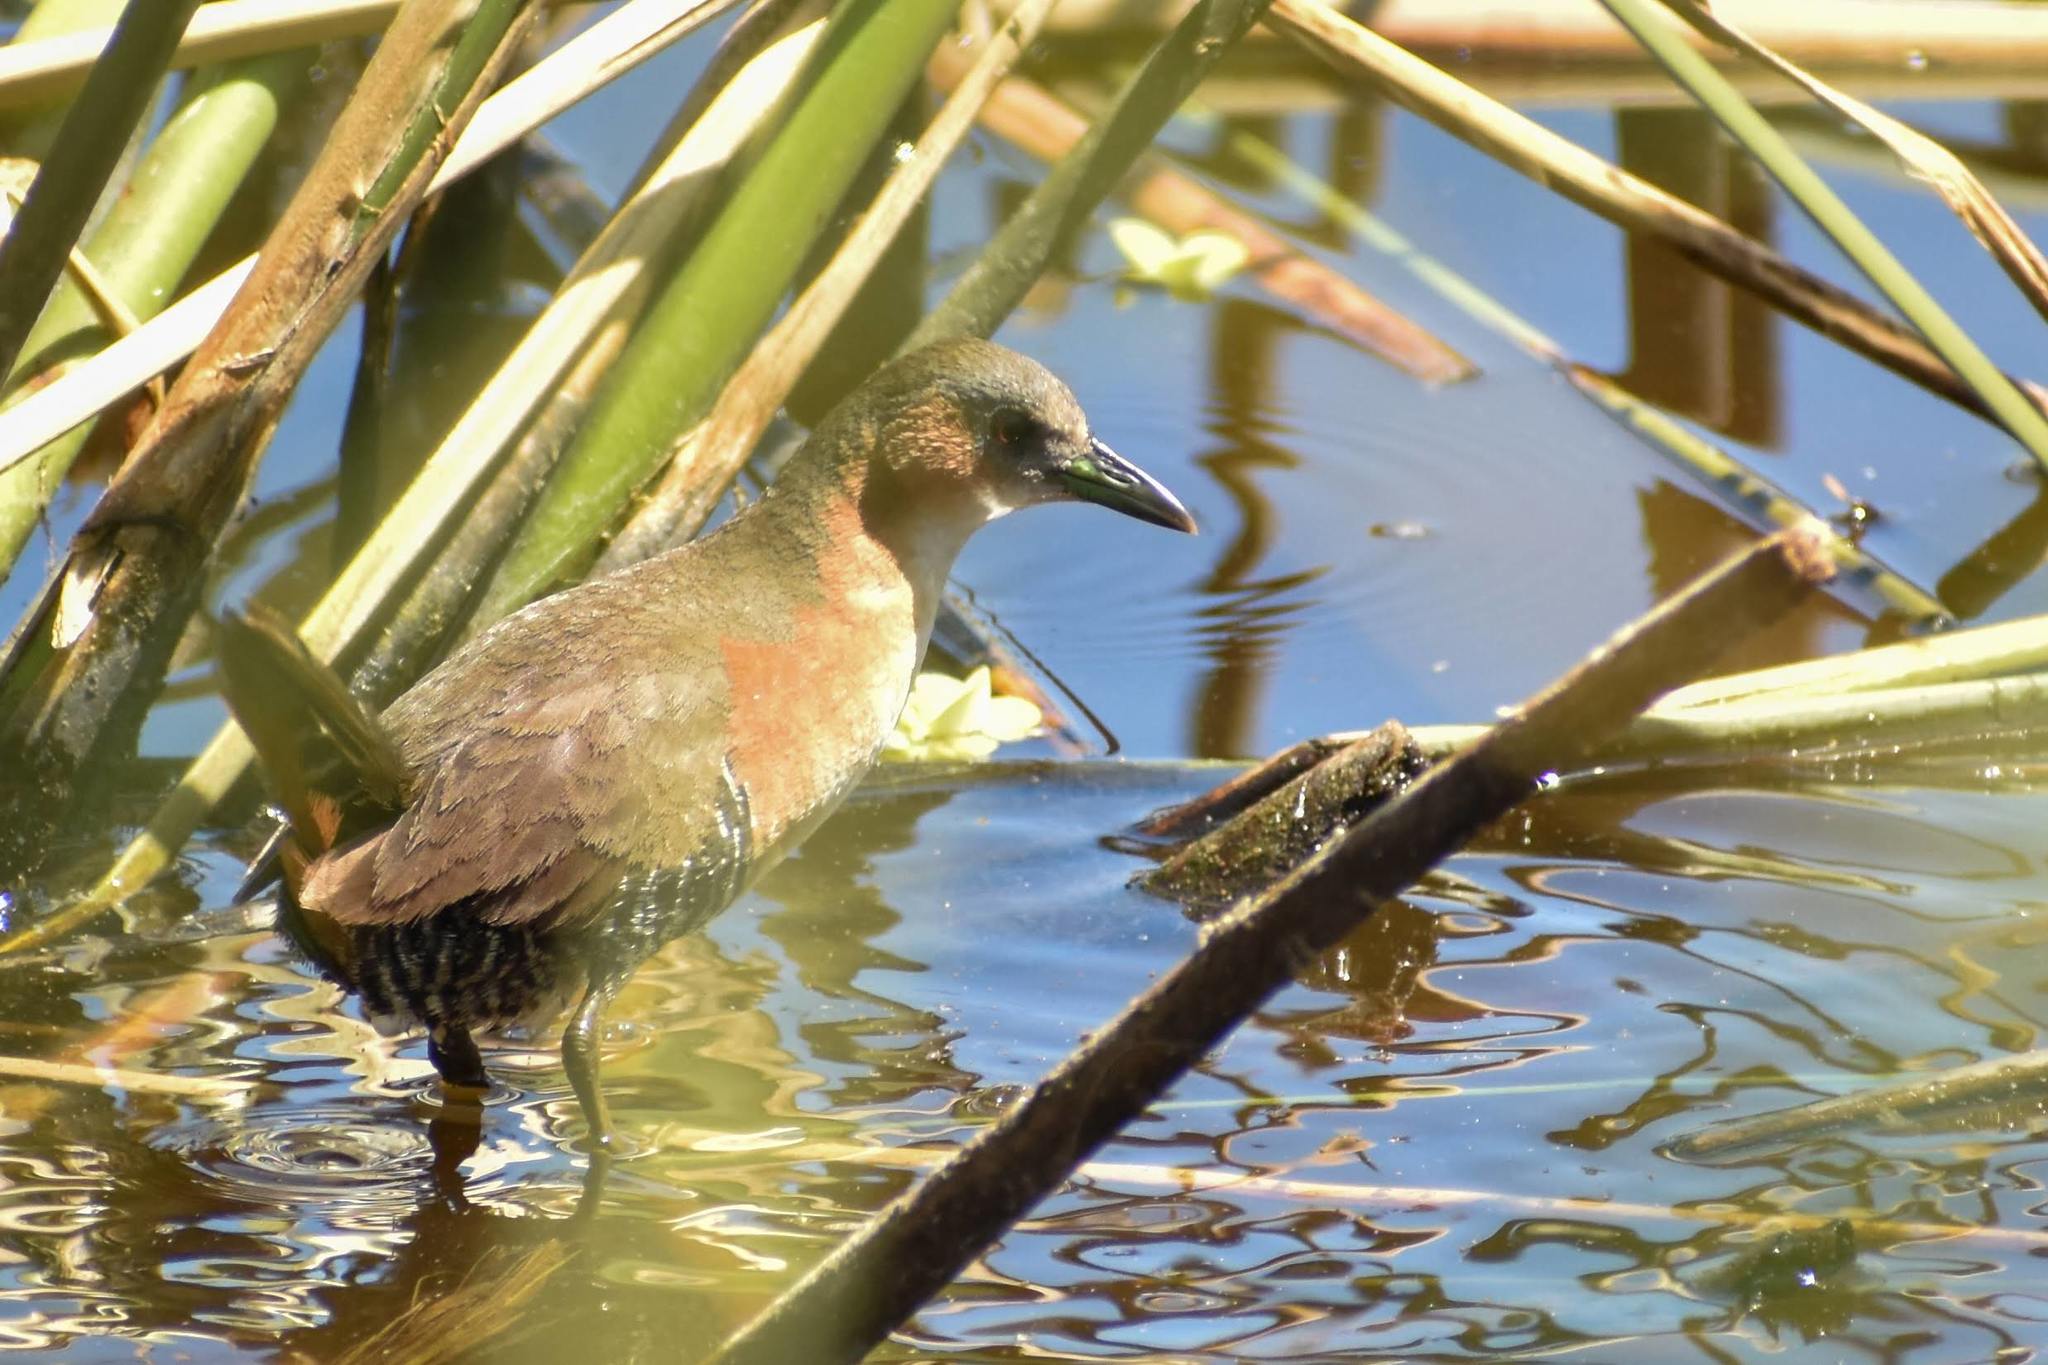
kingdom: Animalia
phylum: Chordata
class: Aves
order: Gruiformes
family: Rallidae
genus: Laterallus
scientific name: Laterallus melanophaius
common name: Rufous-sided crake
